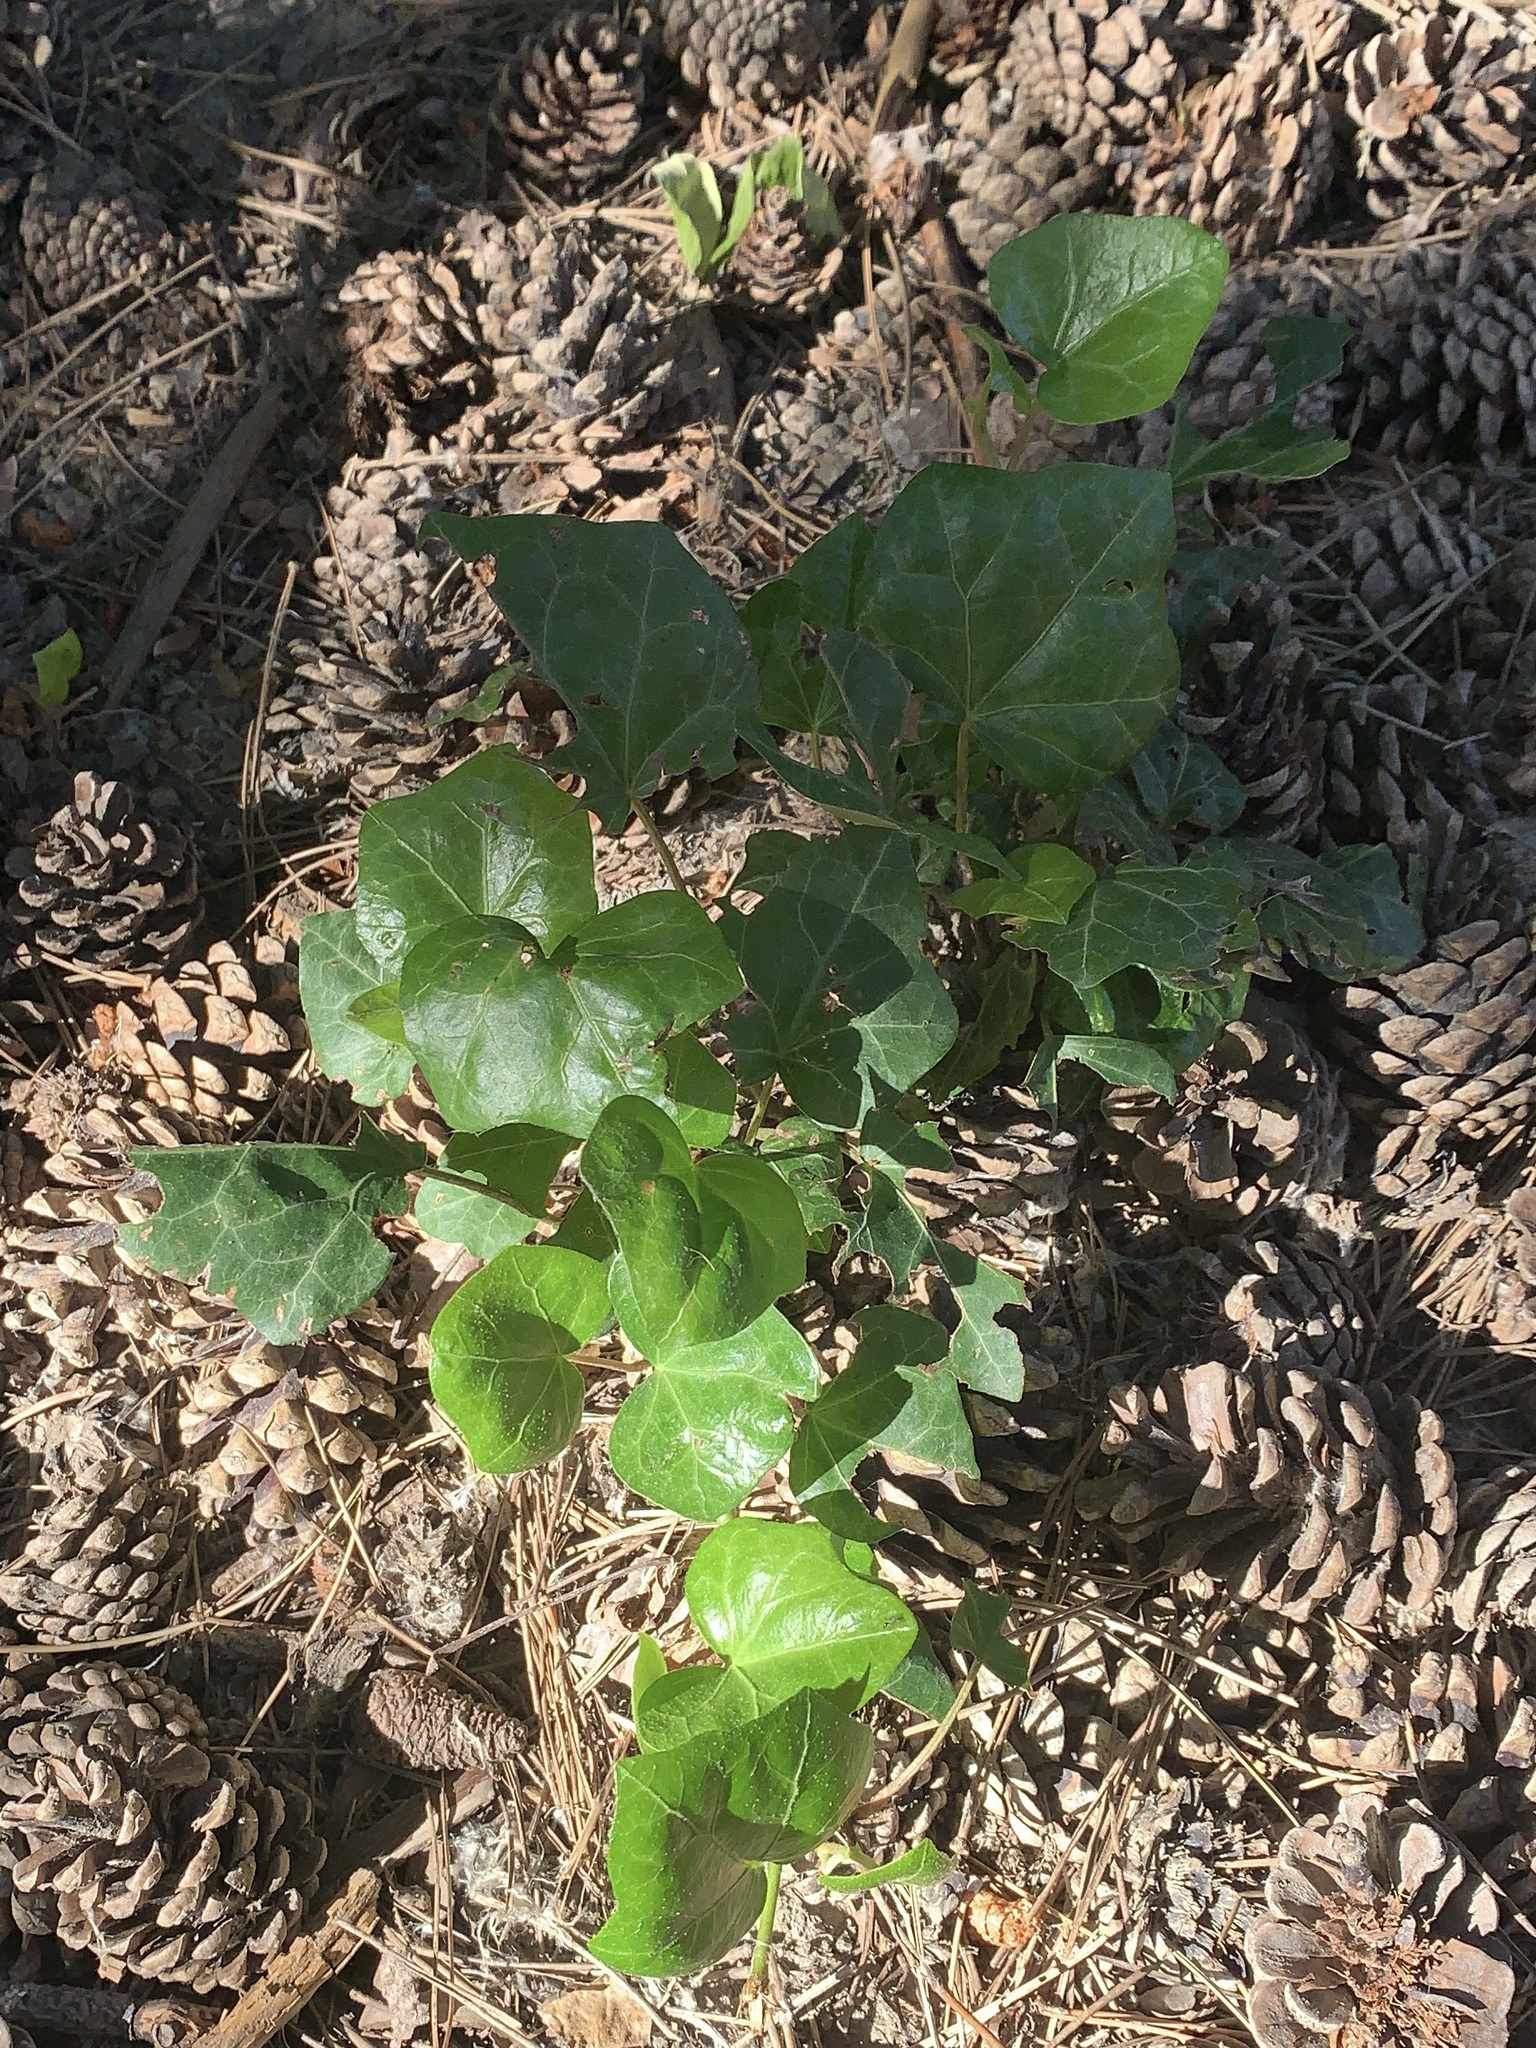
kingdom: Plantae
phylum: Tracheophyta
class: Magnoliopsida
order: Apiales
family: Araliaceae
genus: Hedera
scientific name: Hedera helix
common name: Ivy
